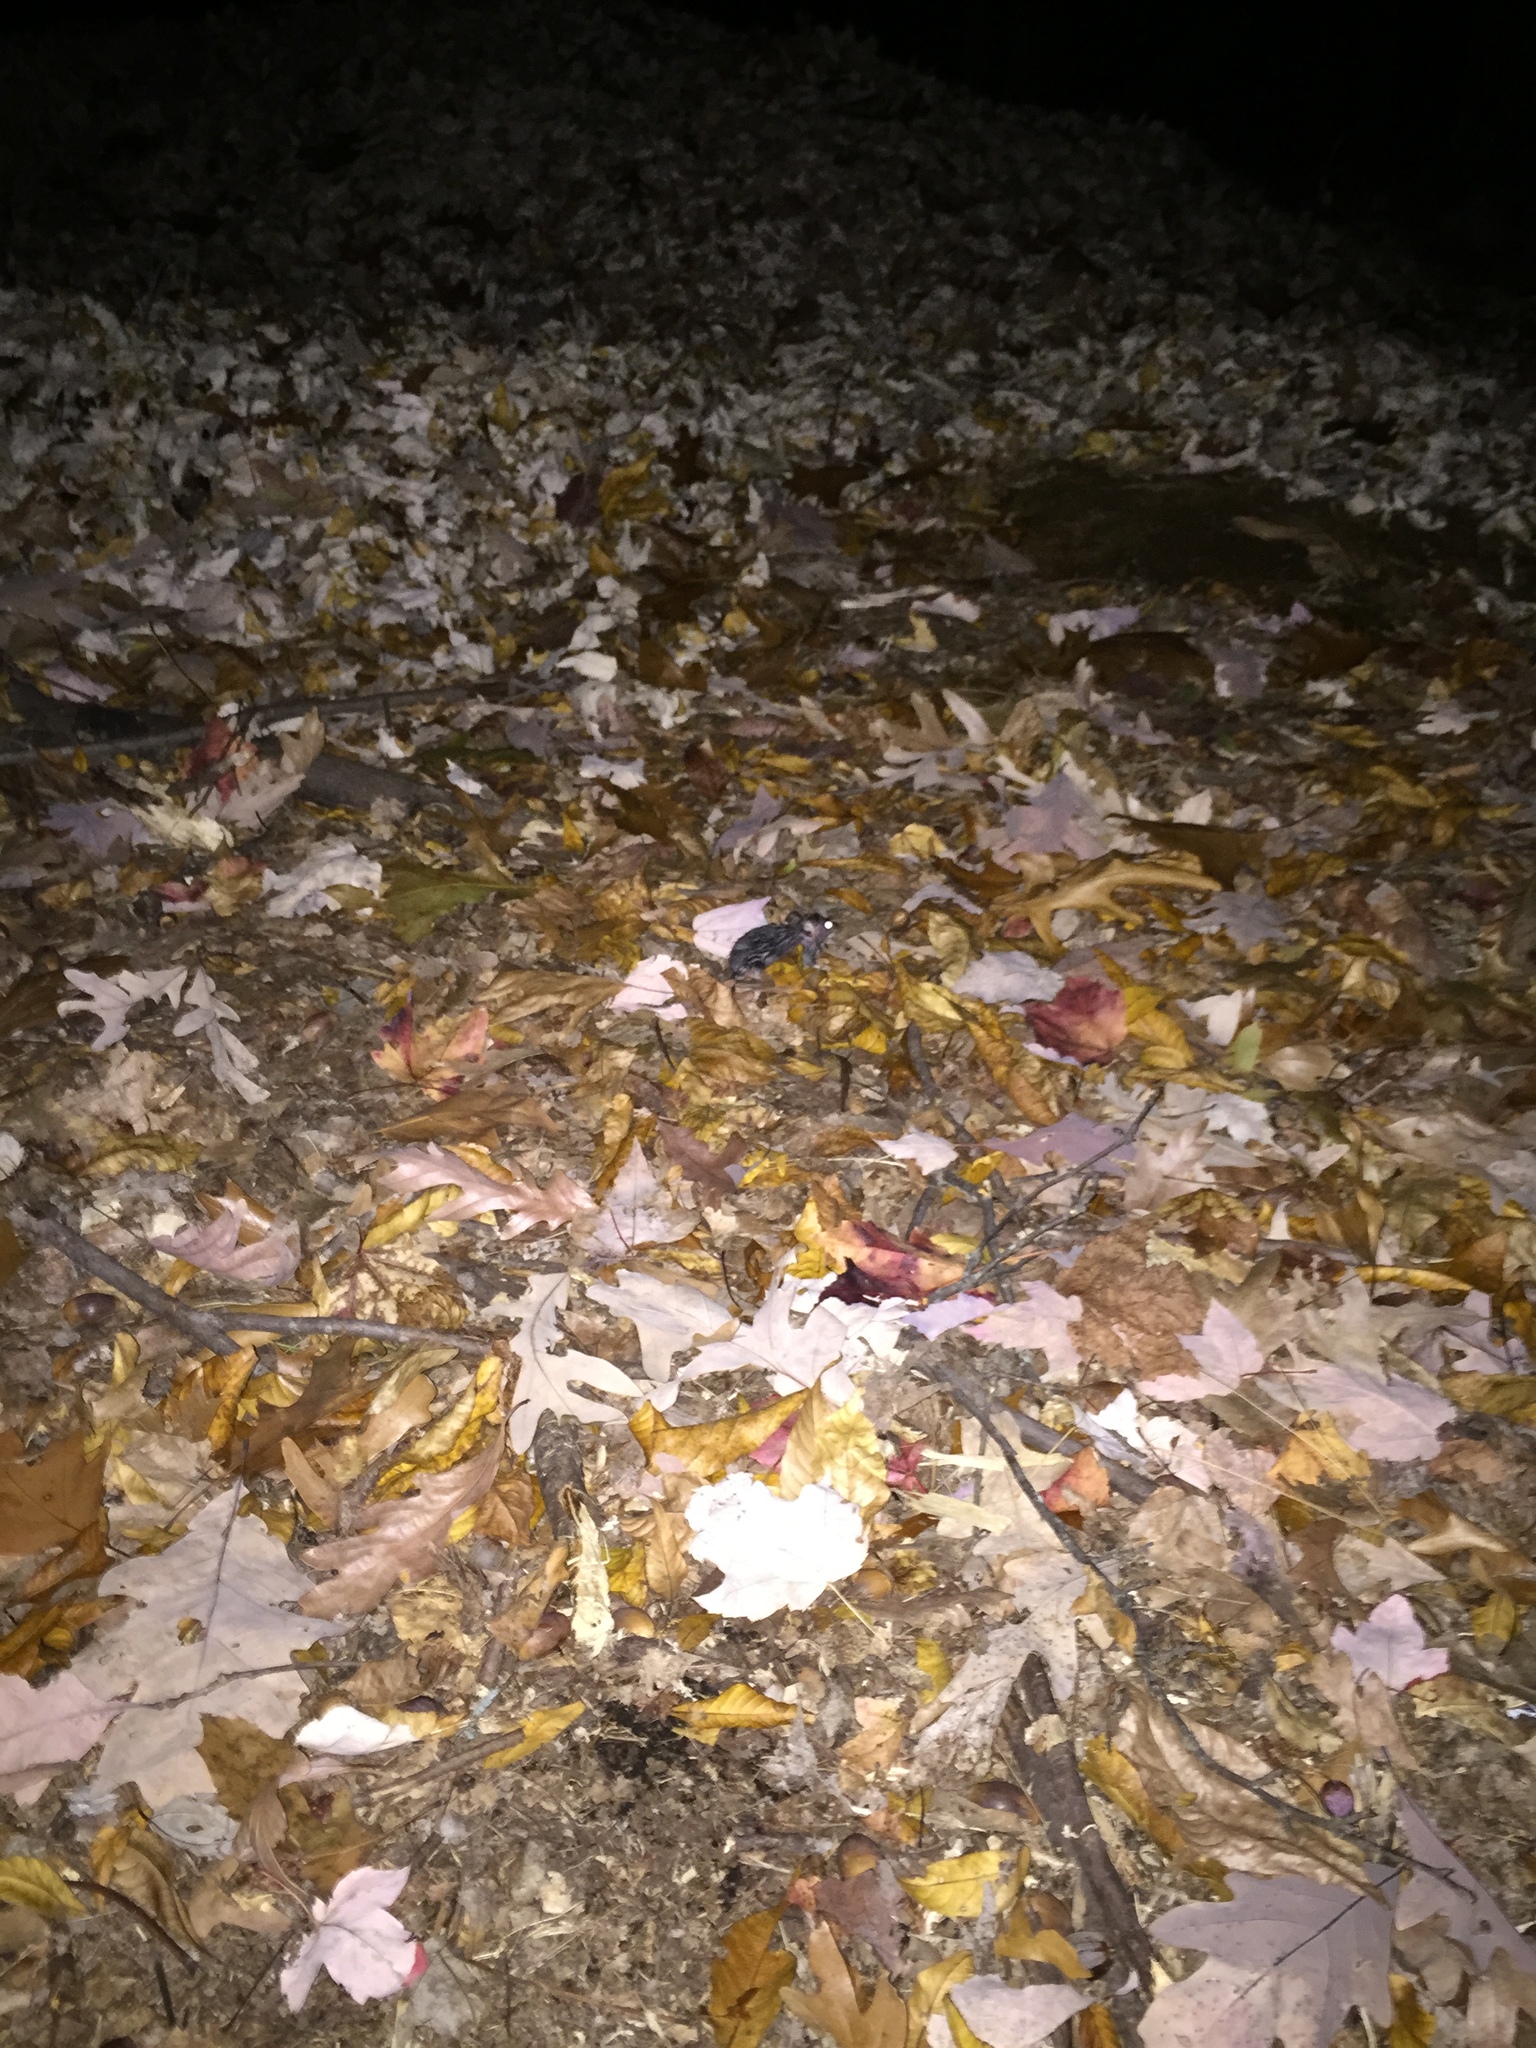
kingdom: Animalia
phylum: Chordata
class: Mammalia
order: Rodentia
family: Muridae
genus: Mus
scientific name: Mus musculus
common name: House mouse
